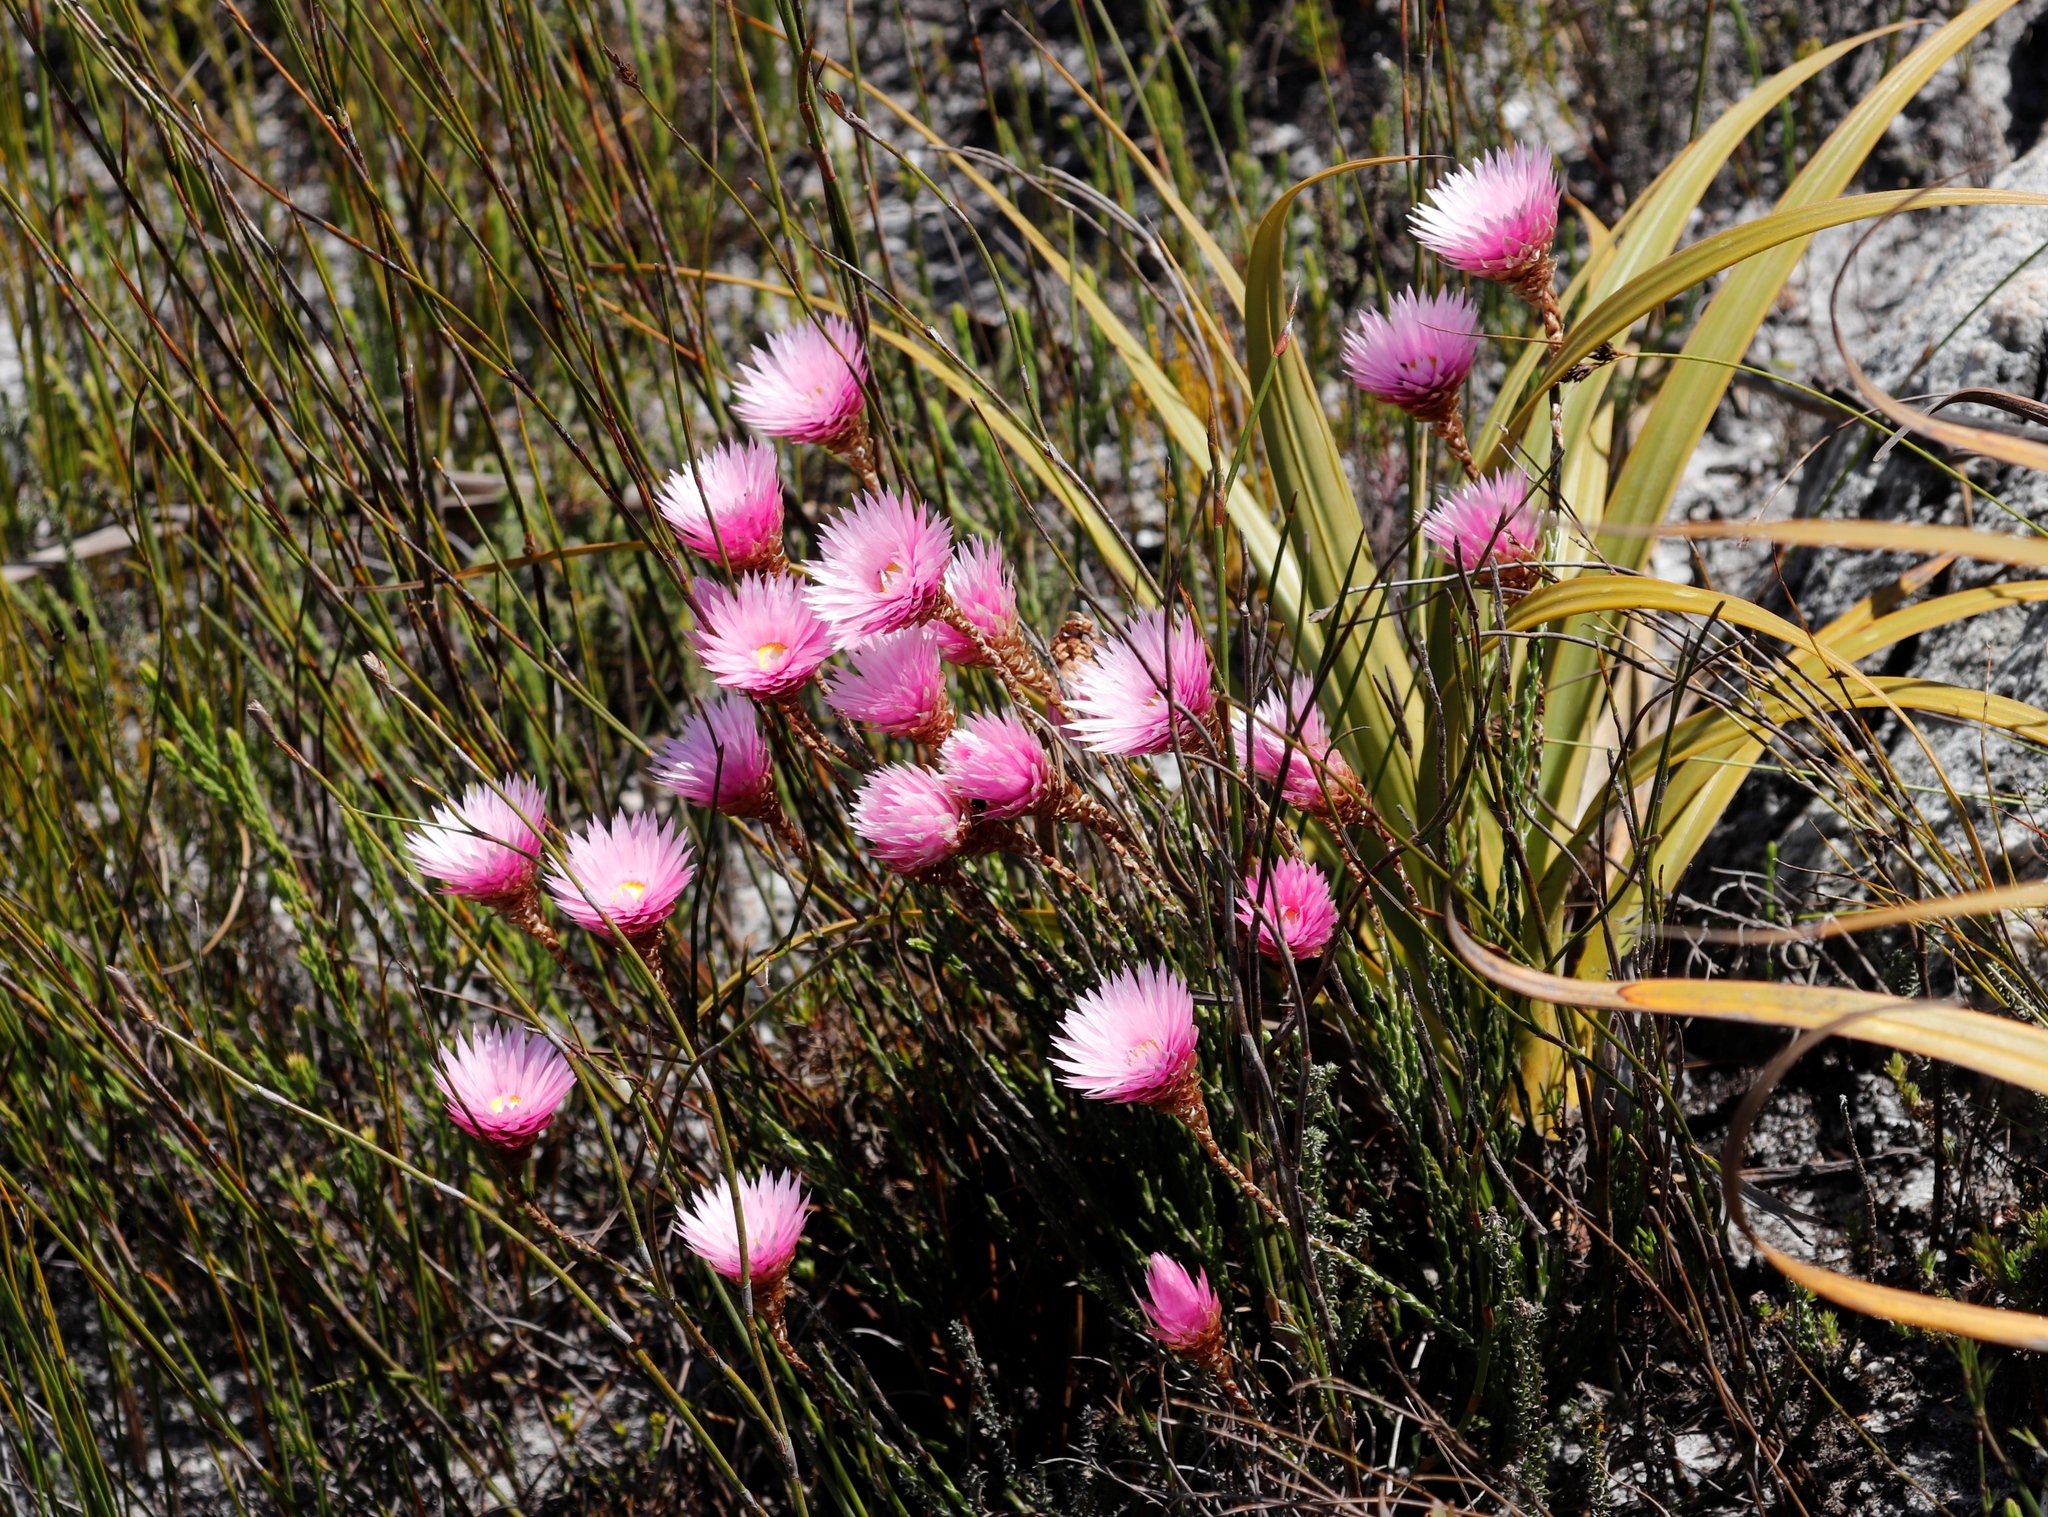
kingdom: Plantae
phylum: Tracheophyta
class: Magnoliopsida
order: Asterales
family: Asteraceae
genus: Edmondia
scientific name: Edmondia pinifolia
